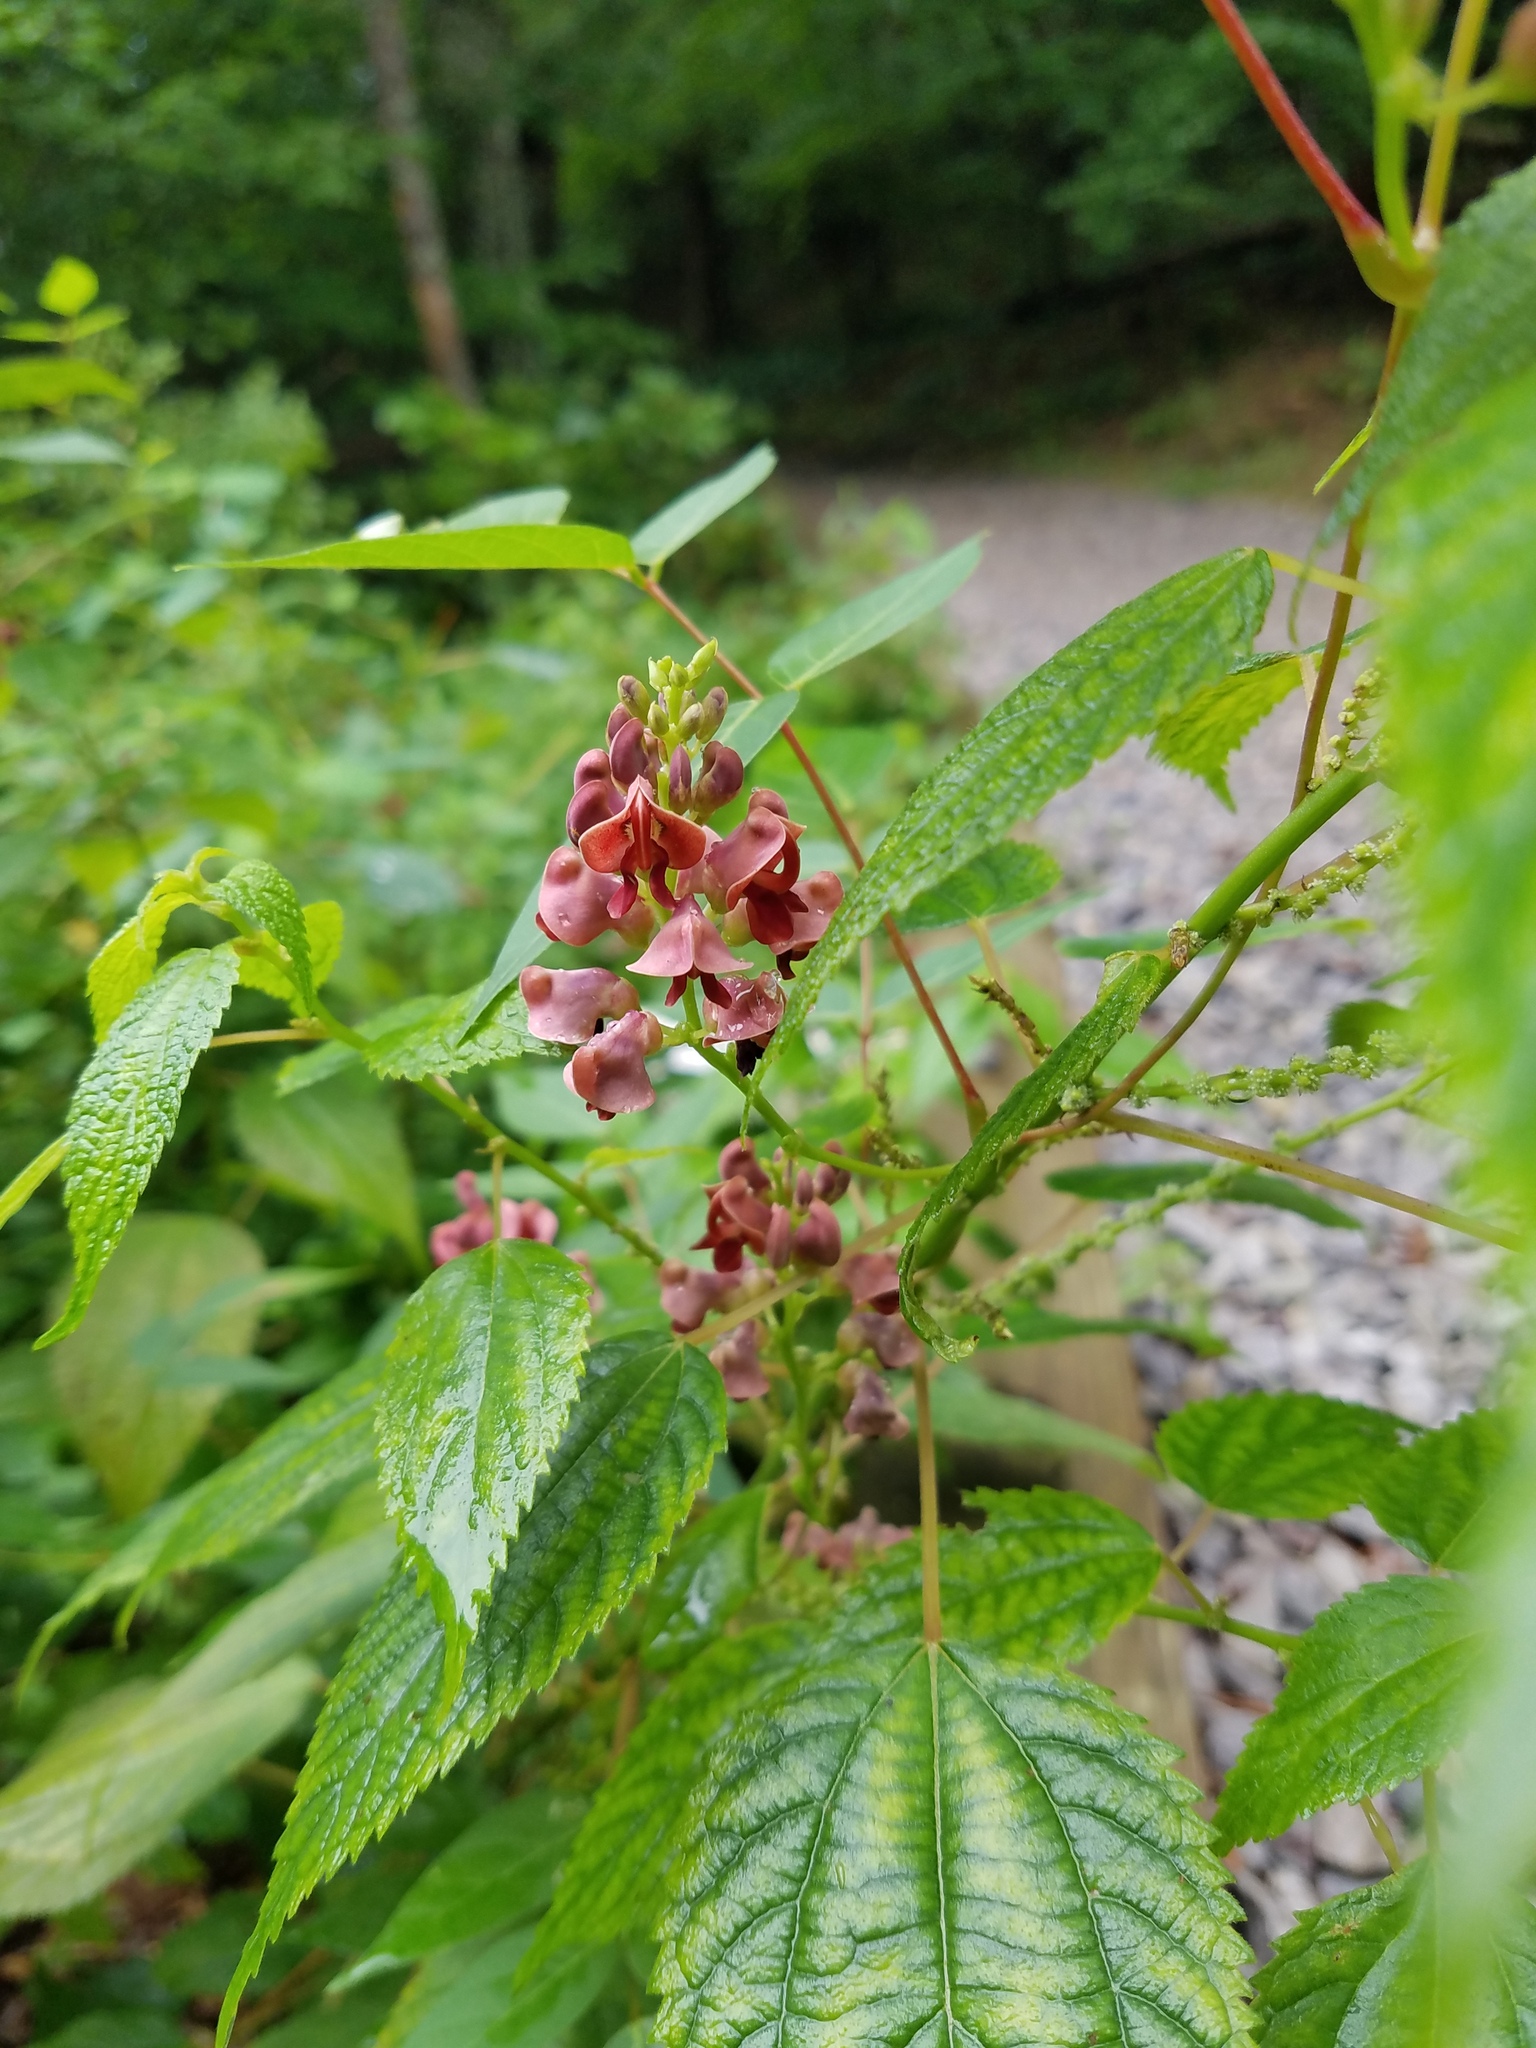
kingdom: Plantae
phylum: Tracheophyta
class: Magnoliopsida
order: Fabales
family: Fabaceae
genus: Apios
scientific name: Apios americana
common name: American potato-bean
